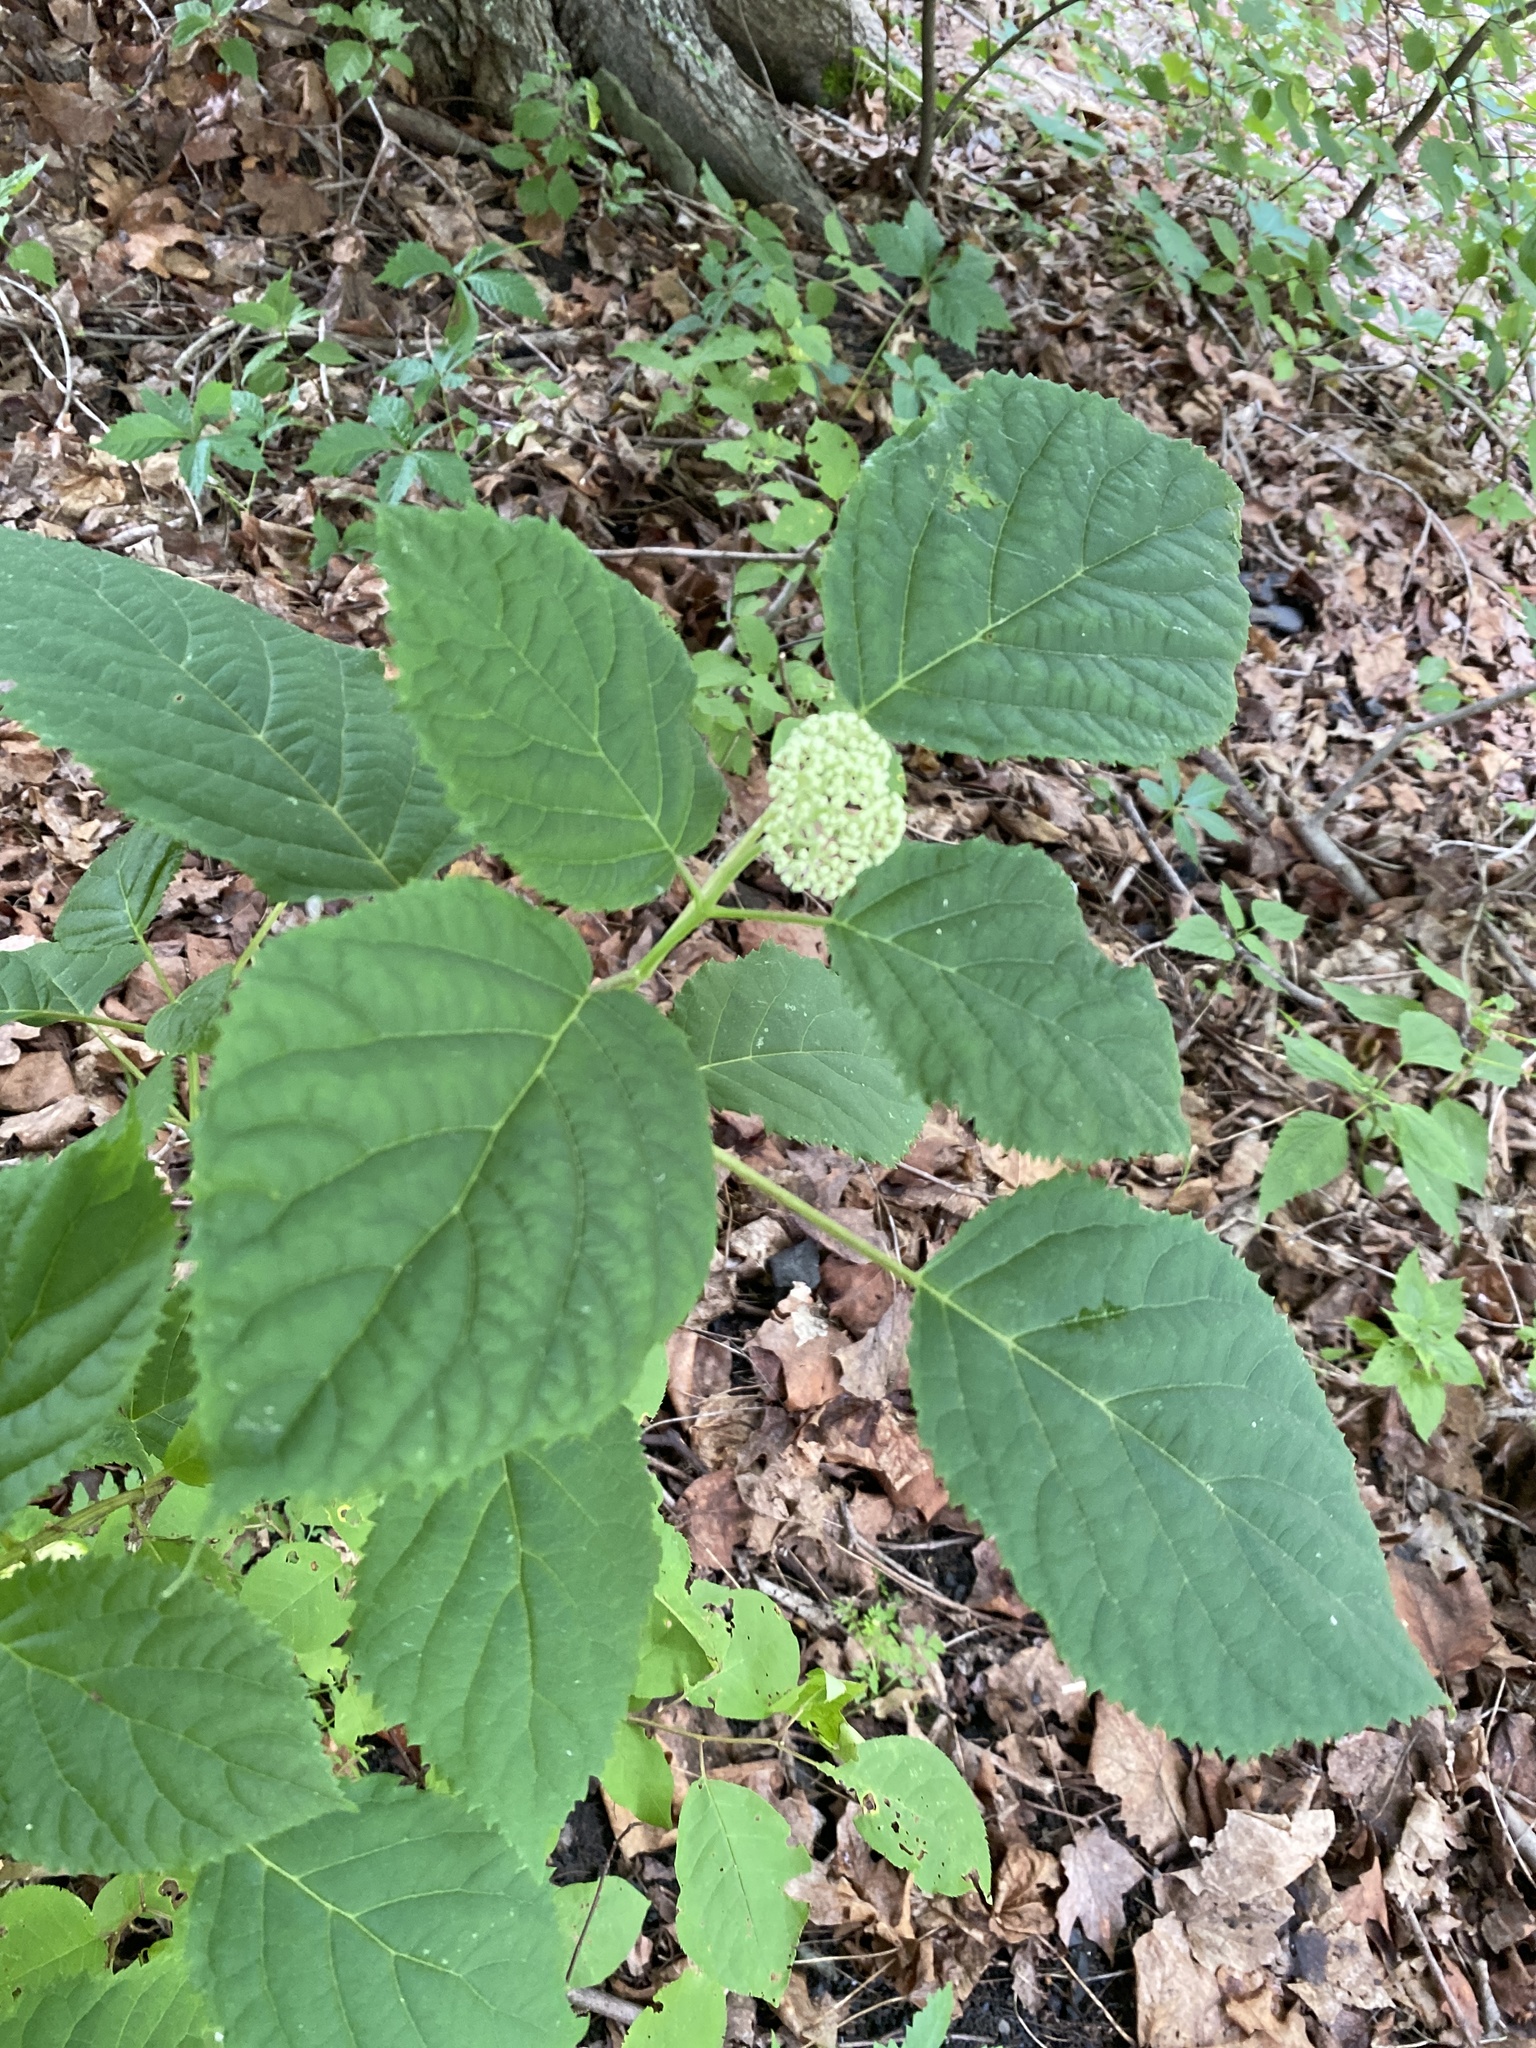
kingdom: Plantae
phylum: Tracheophyta
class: Magnoliopsida
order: Cornales
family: Hydrangeaceae
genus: Hydrangea
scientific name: Hydrangea arborescens
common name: Sevenbark
